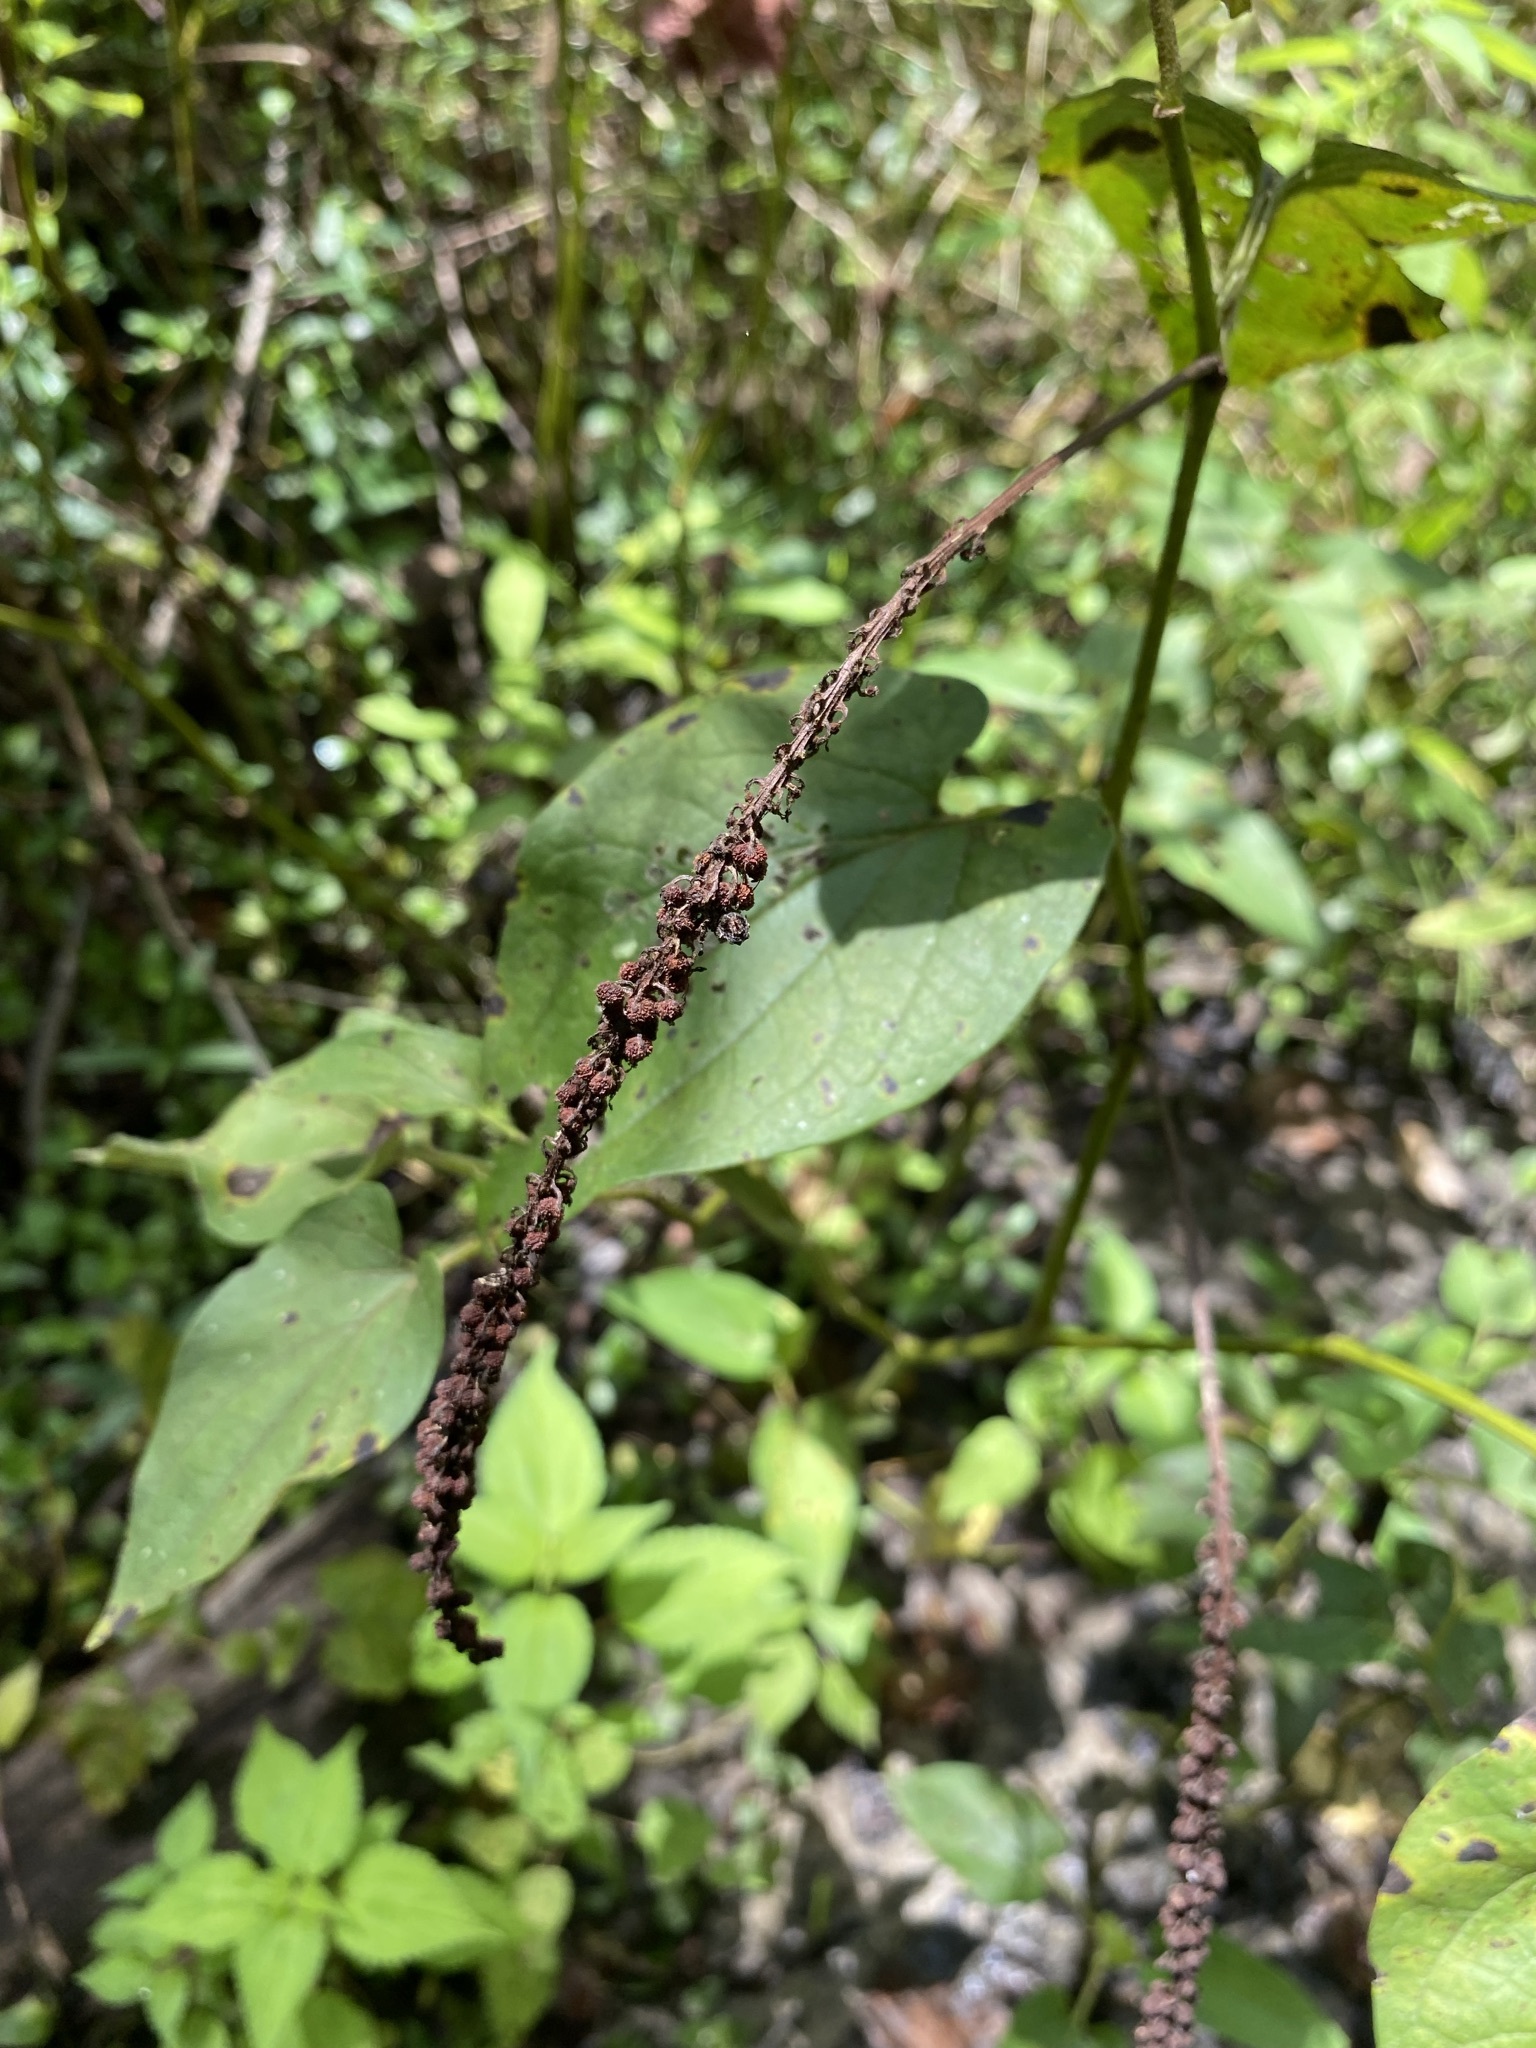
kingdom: Plantae
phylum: Tracheophyta
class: Magnoliopsida
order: Piperales
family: Saururaceae
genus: Saururus
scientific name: Saururus cernuus
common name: Lizard's-tail
